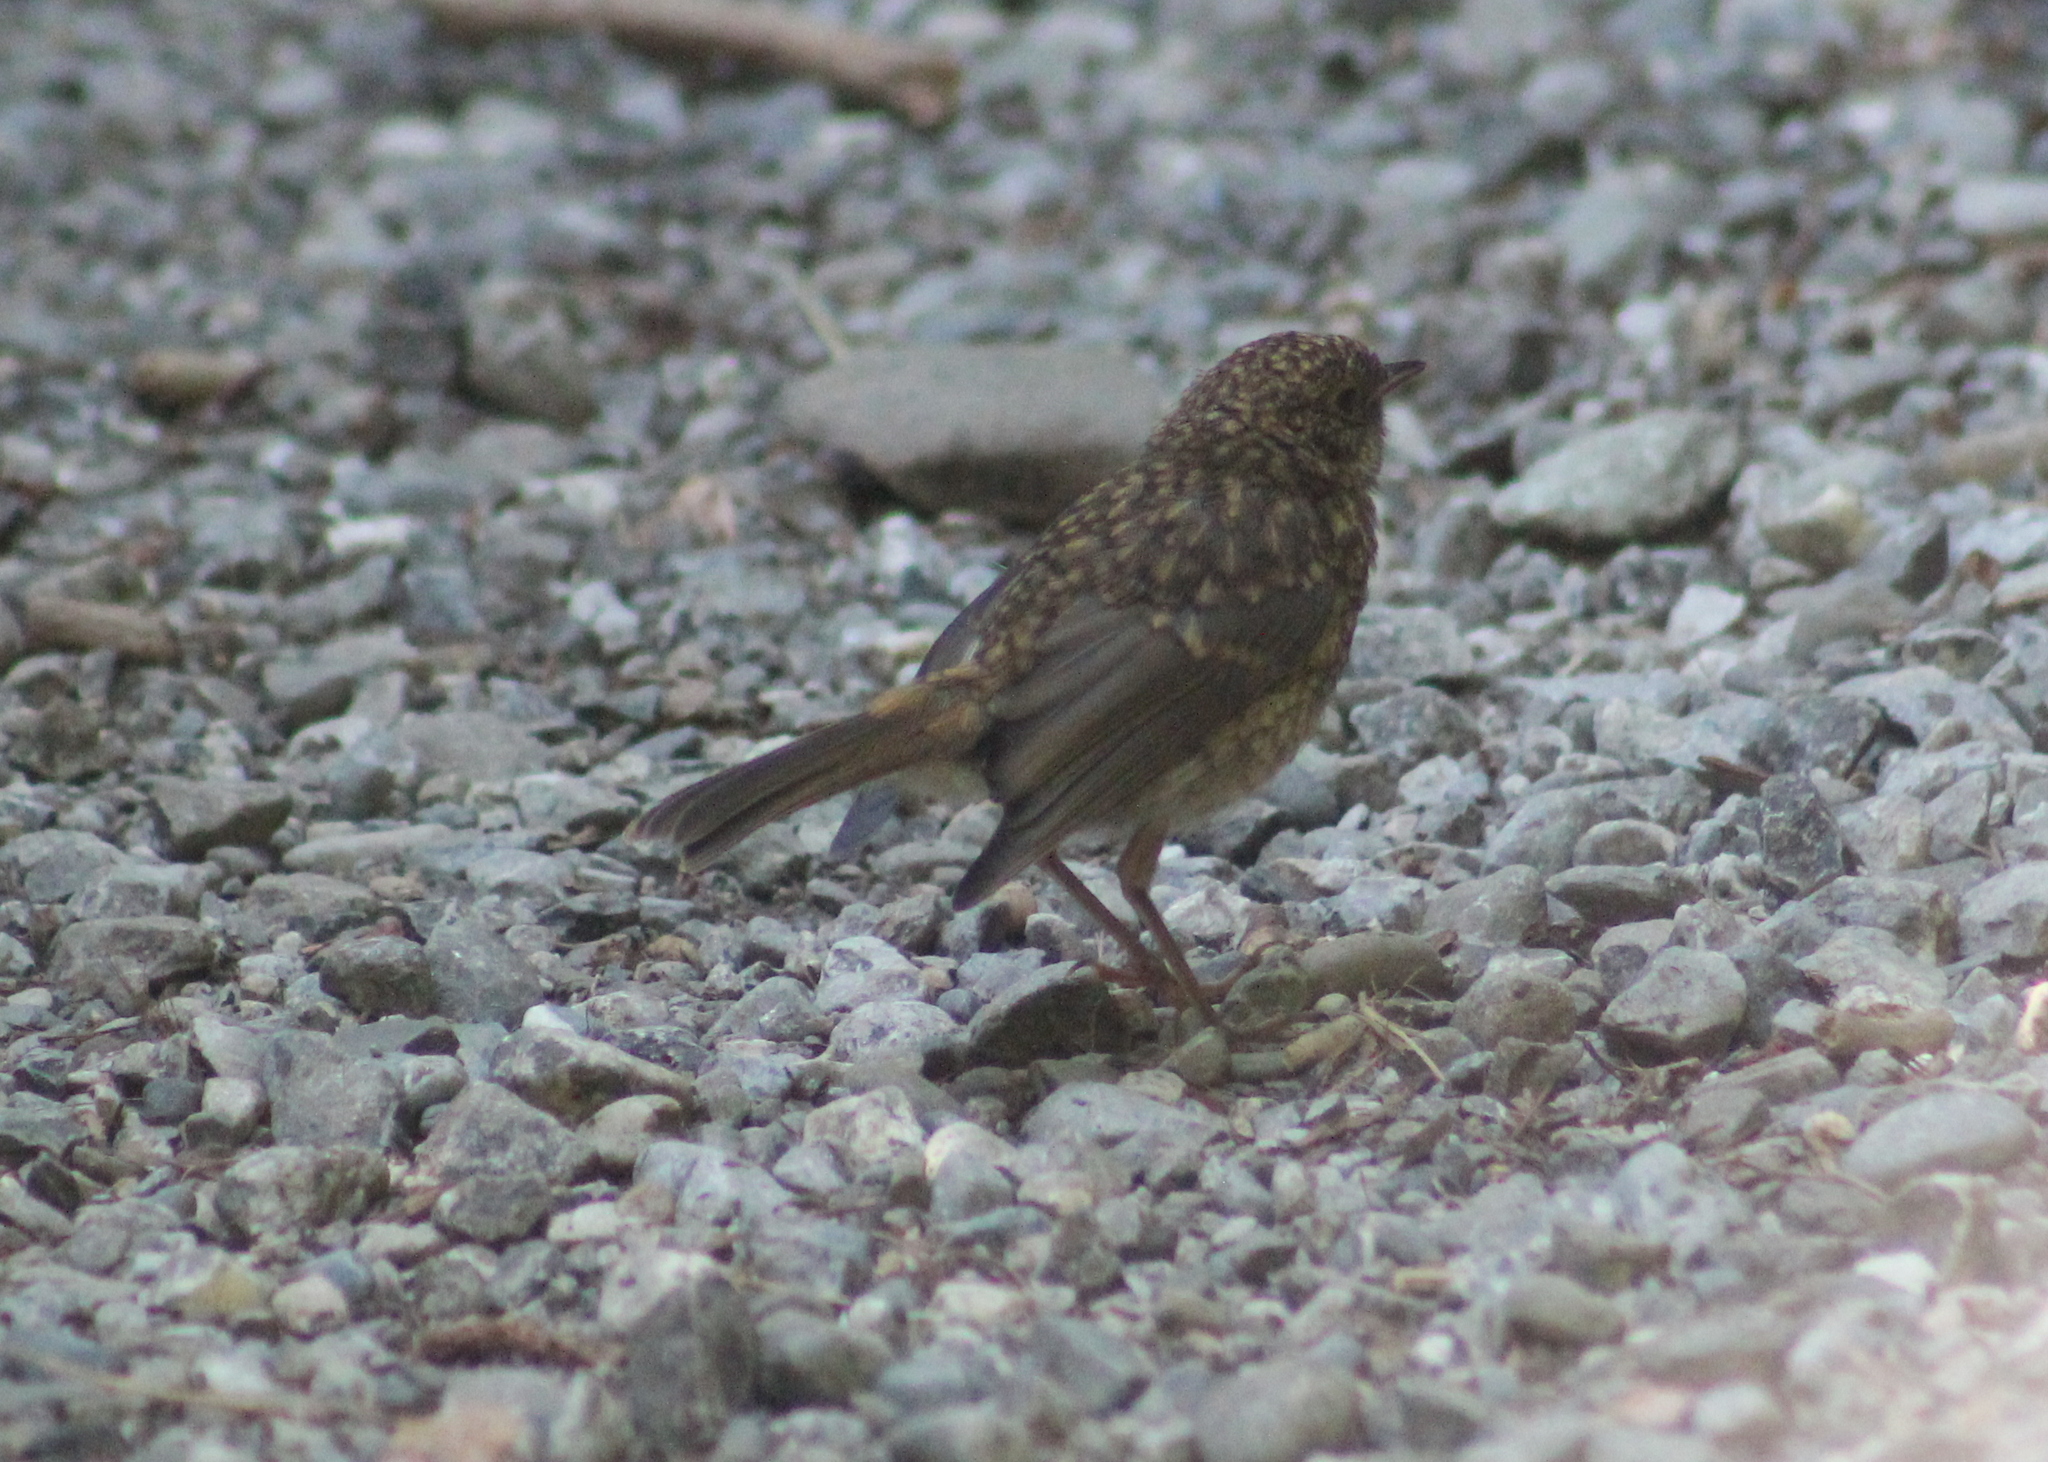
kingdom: Animalia
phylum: Chordata
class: Aves
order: Passeriformes
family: Muscicapidae
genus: Erithacus
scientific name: Erithacus rubecula
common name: European robin
